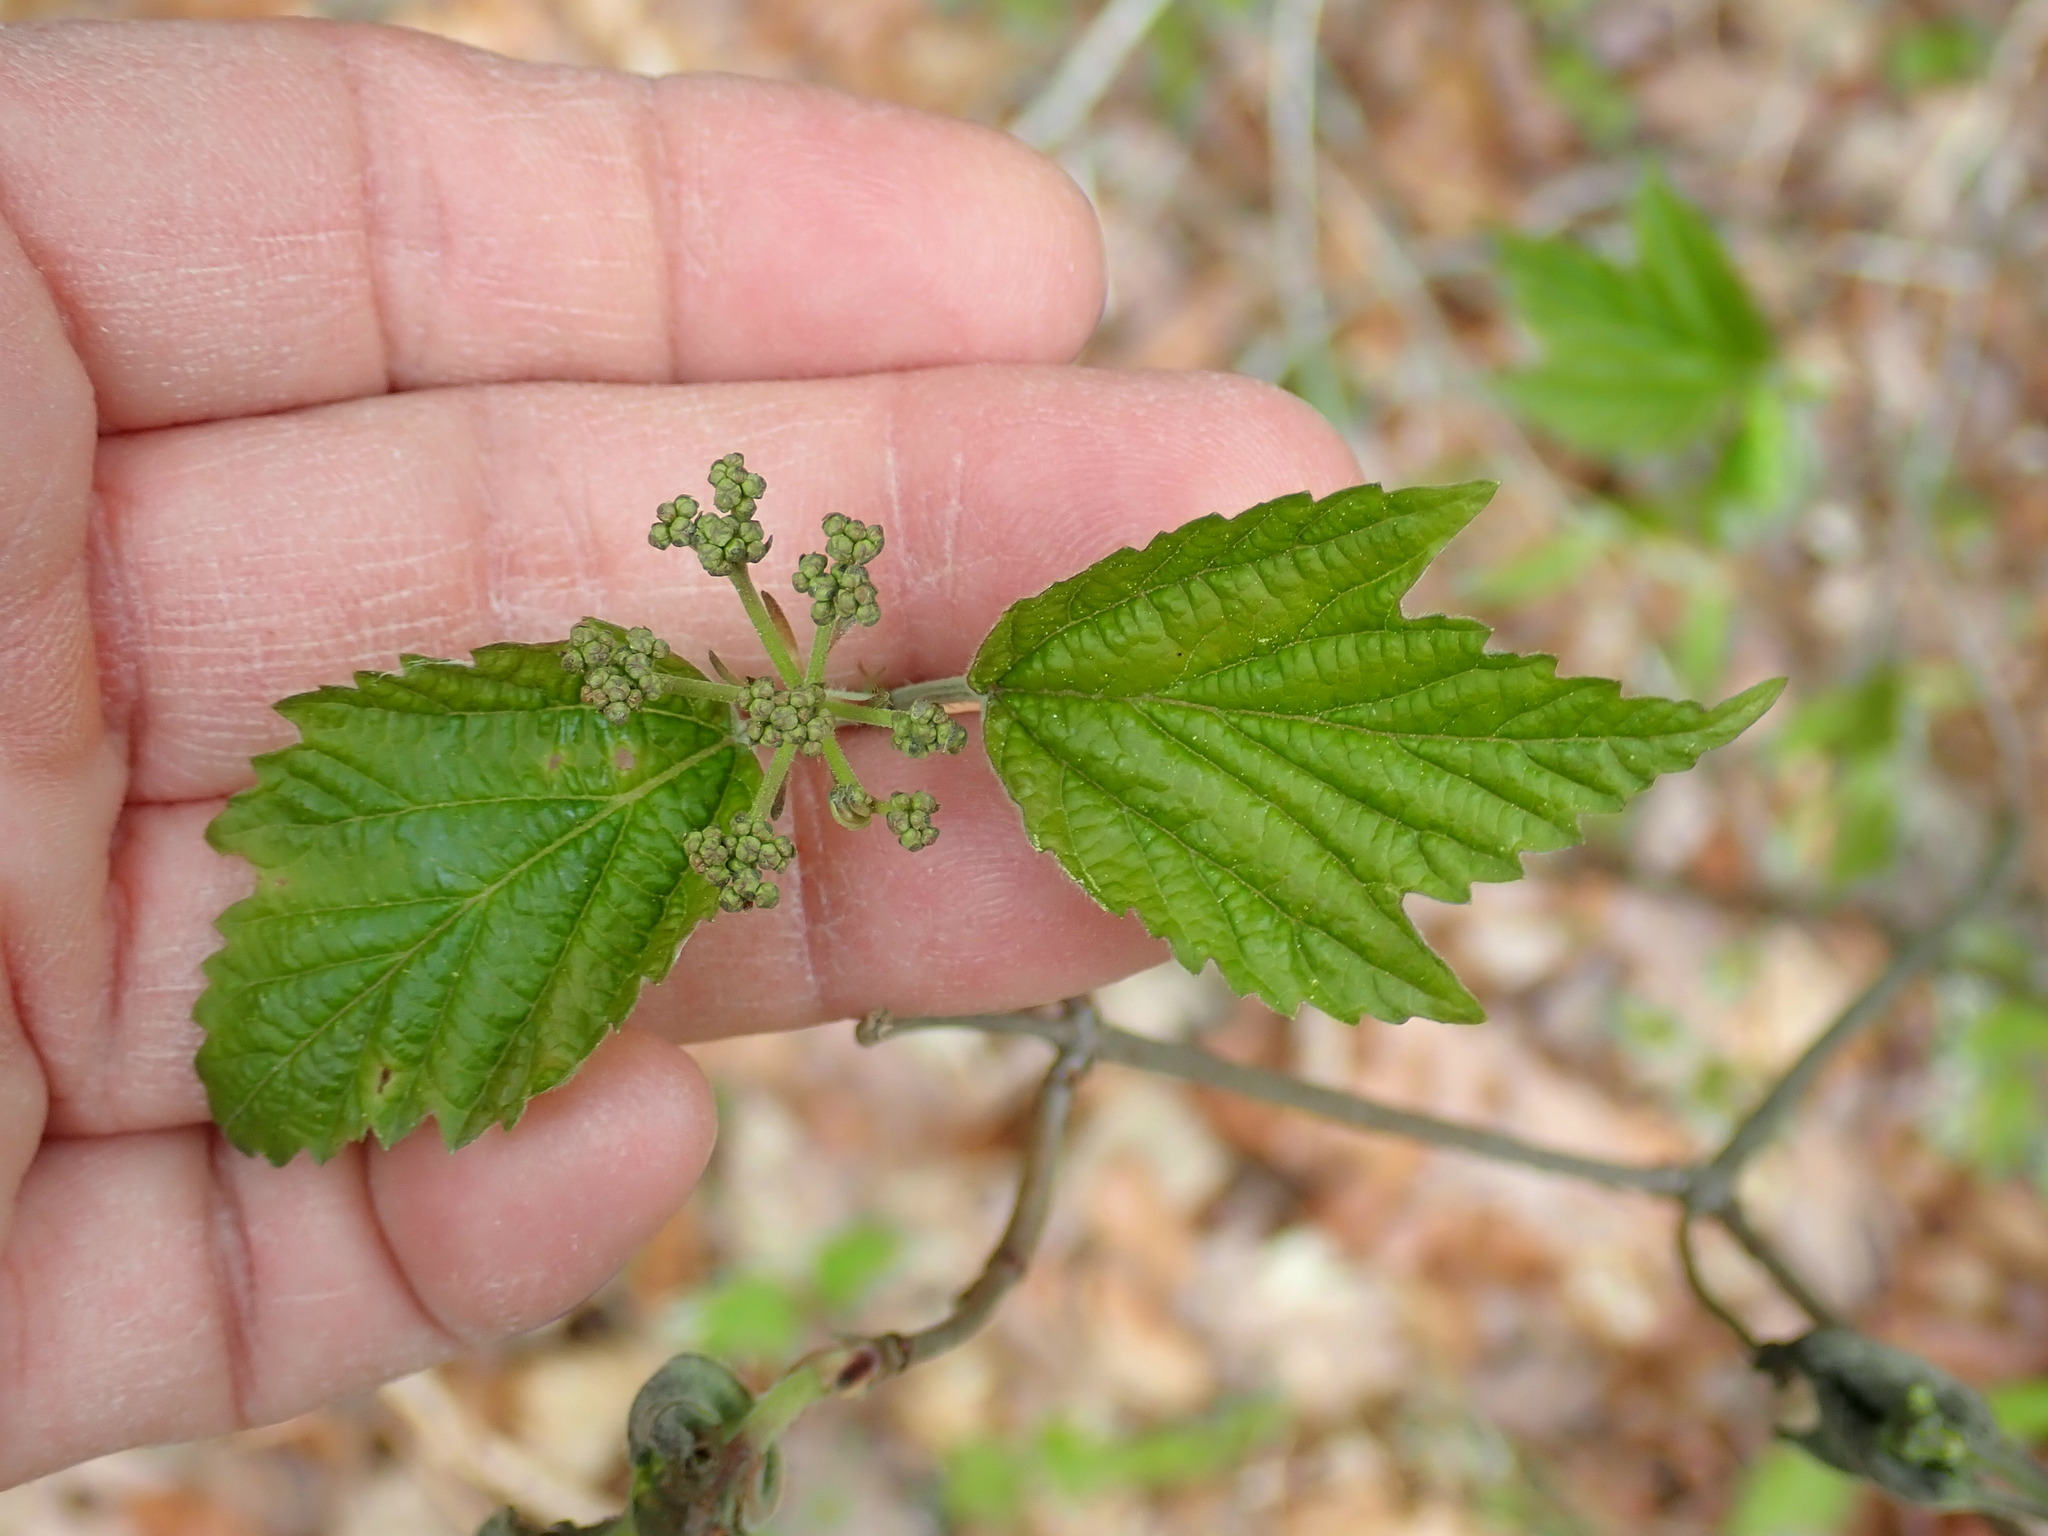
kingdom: Plantae
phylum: Tracheophyta
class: Magnoliopsida
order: Dipsacales
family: Viburnaceae
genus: Viburnum
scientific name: Viburnum acerifolium
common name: Dockmackie
